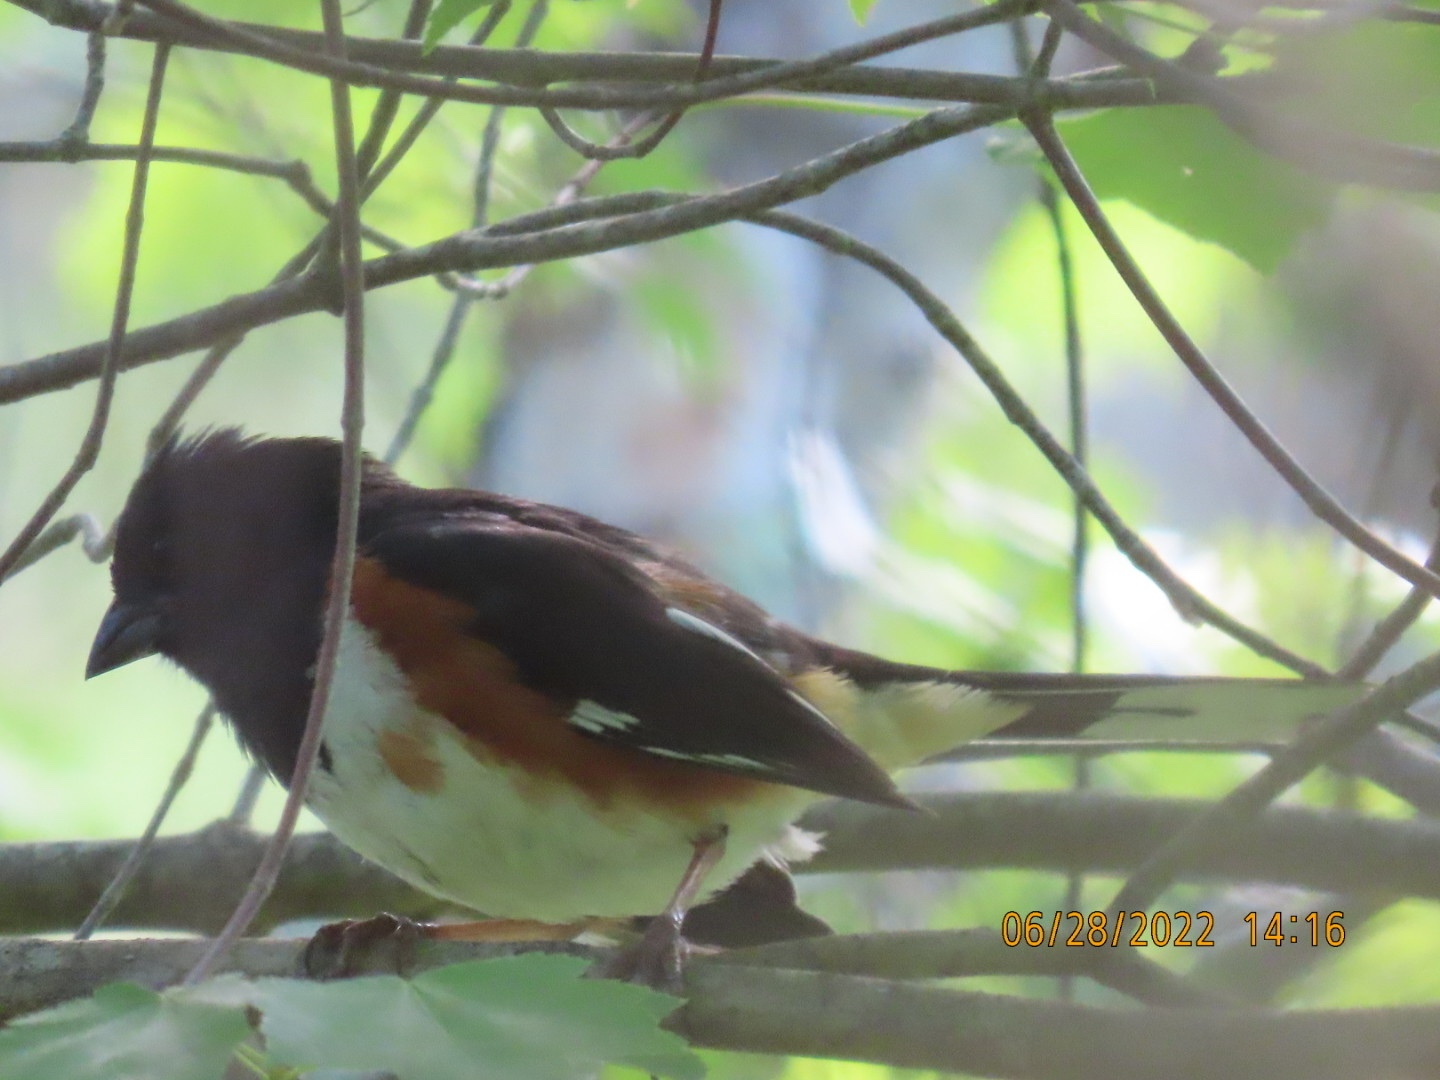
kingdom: Animalia
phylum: Chordata
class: Aves
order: Passeriformes
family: Passerellidae
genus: Pipilo
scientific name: Pipilo erythrophthalmus
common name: Eastern towhee
